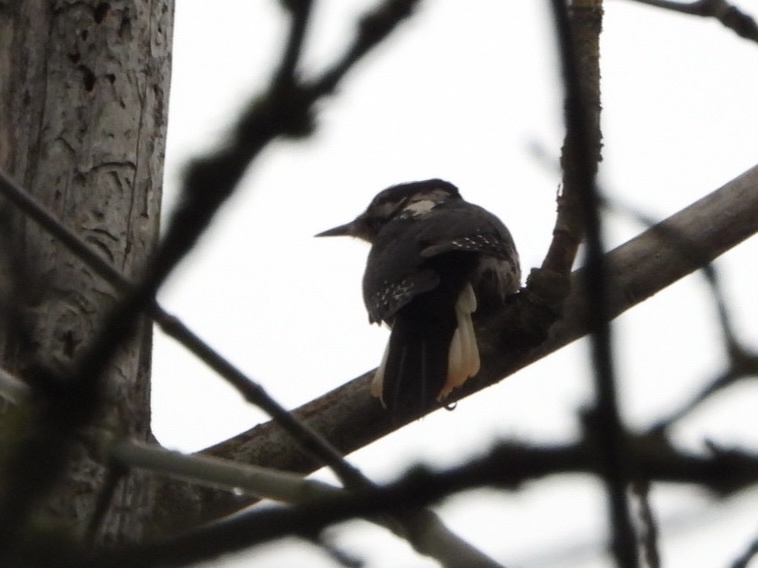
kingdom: Animalia
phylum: Chordata
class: Aves
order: Piciformes
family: Picidae
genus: Leuconotopicus
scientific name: Leuconotopicus villosus
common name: Hairy woodpecker
